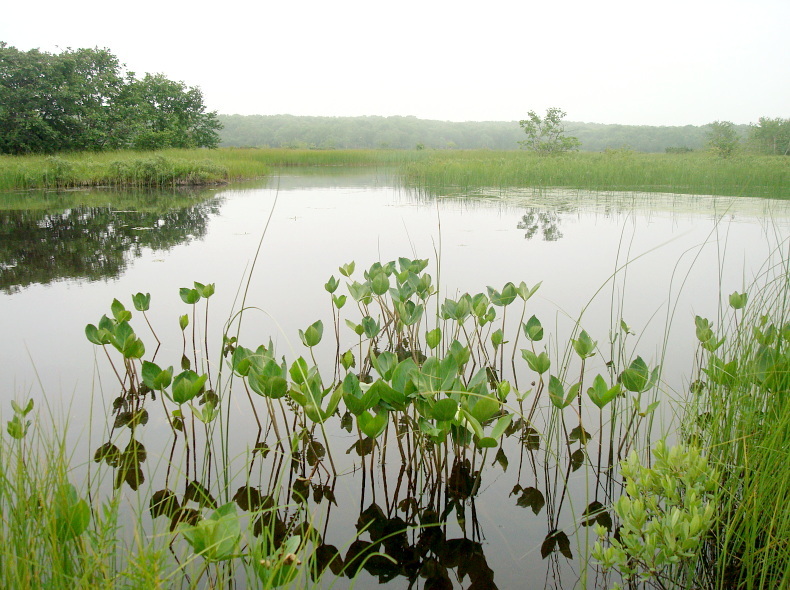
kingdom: Plantae
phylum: Tracheophyta
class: Magnoliopsida
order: Asterales
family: Menyanthaceae
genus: Menyanthes
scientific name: Menyanthes trifoliata
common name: Bogbean
